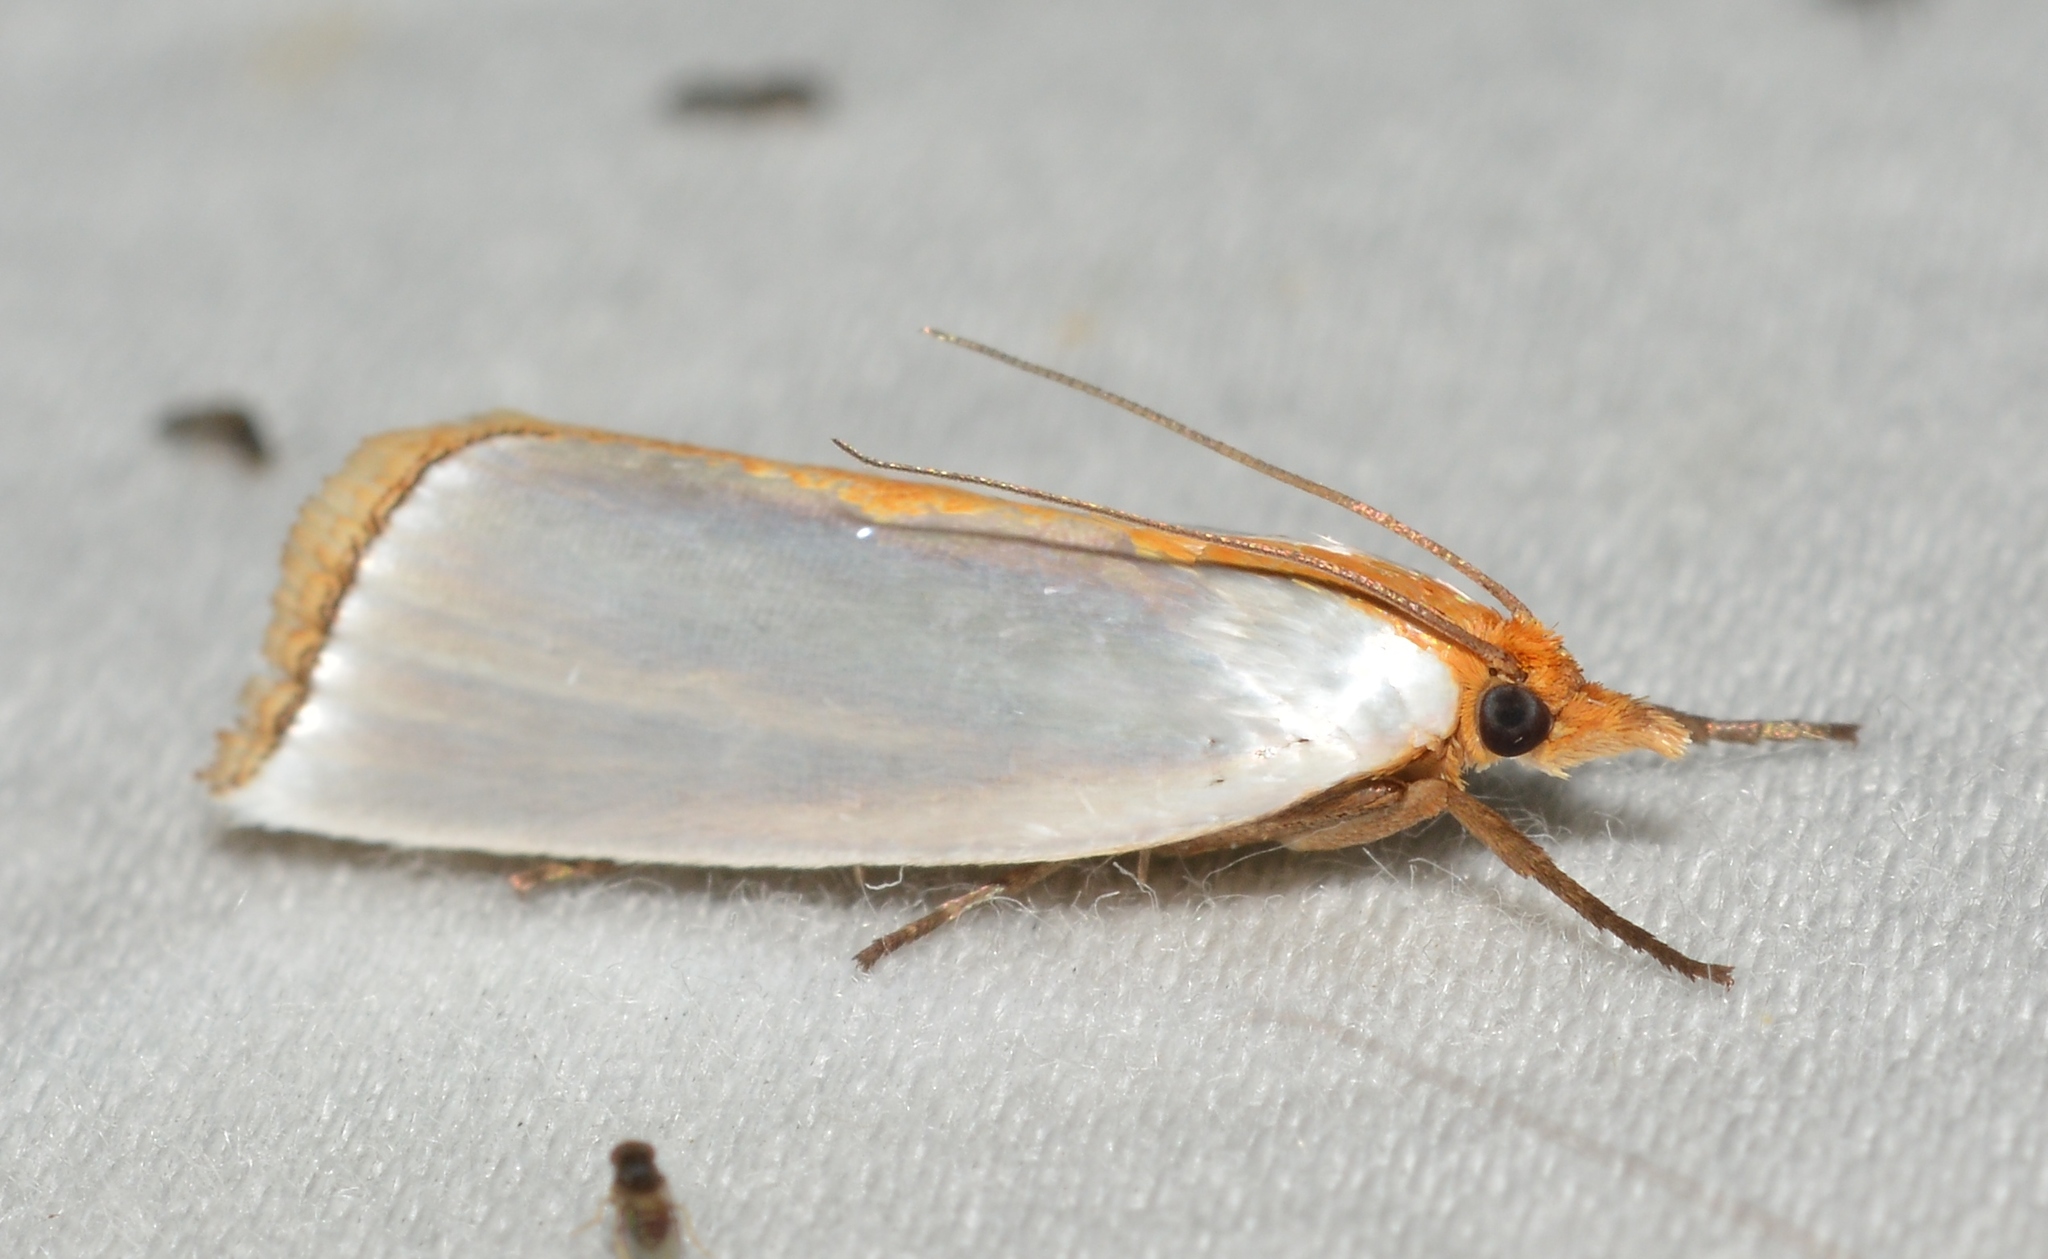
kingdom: Animalia
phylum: Arthropoda
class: Insecta
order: Lepidoptera
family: Crambidae
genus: Argyria
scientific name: Argyria
